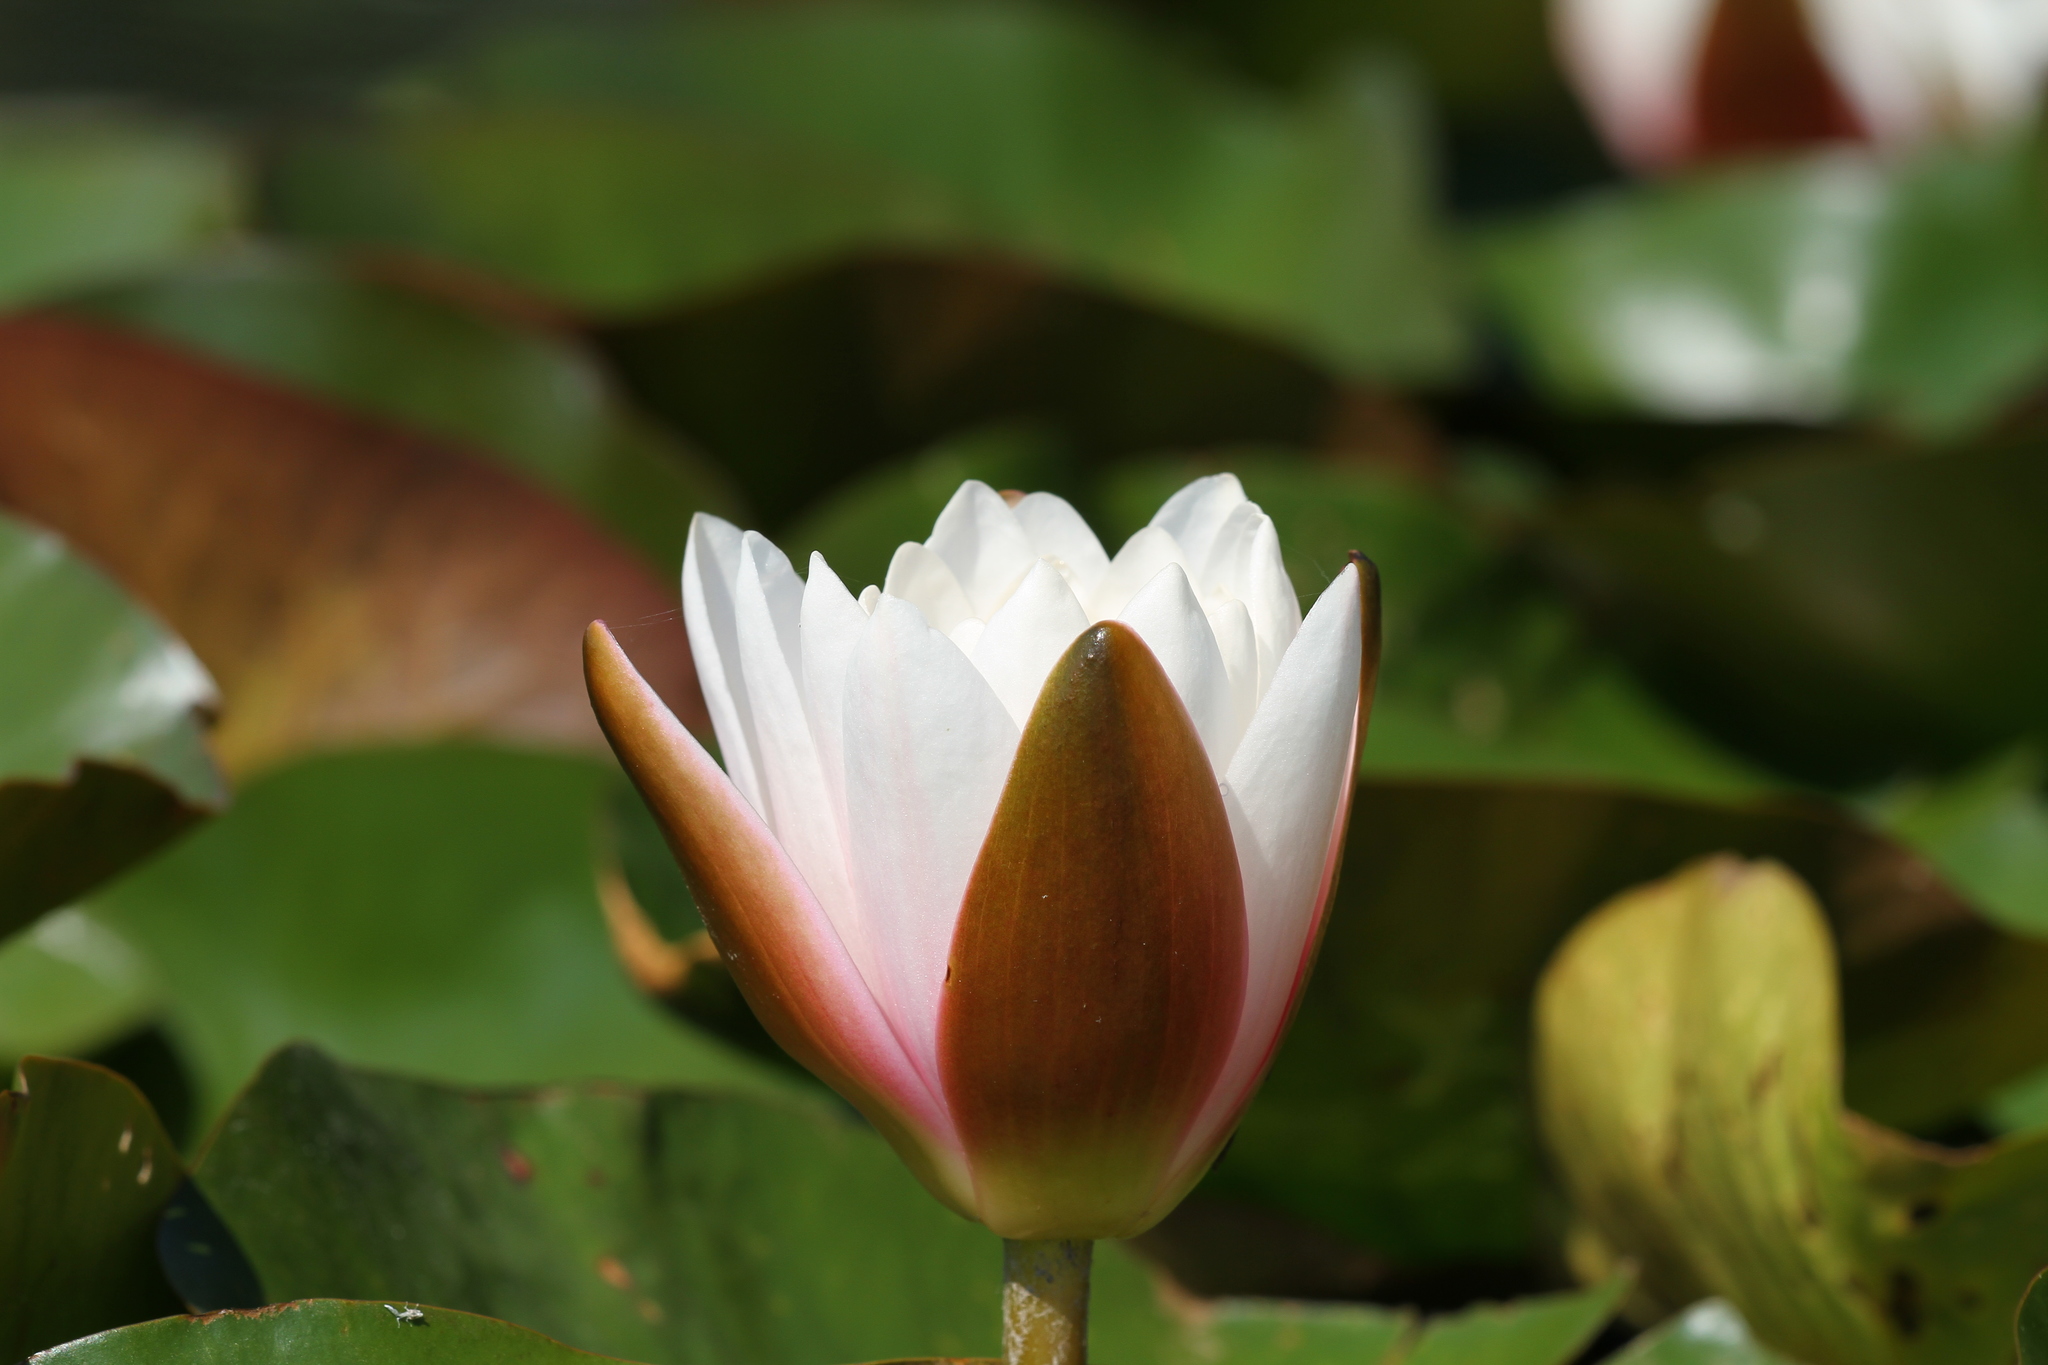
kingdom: Plantae
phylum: Tracheophyta
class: Magnoliopsida
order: Nymphaeales
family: Nymphaeaceae
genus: Nymphaea
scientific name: Nymphaea alba
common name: White water-lily
